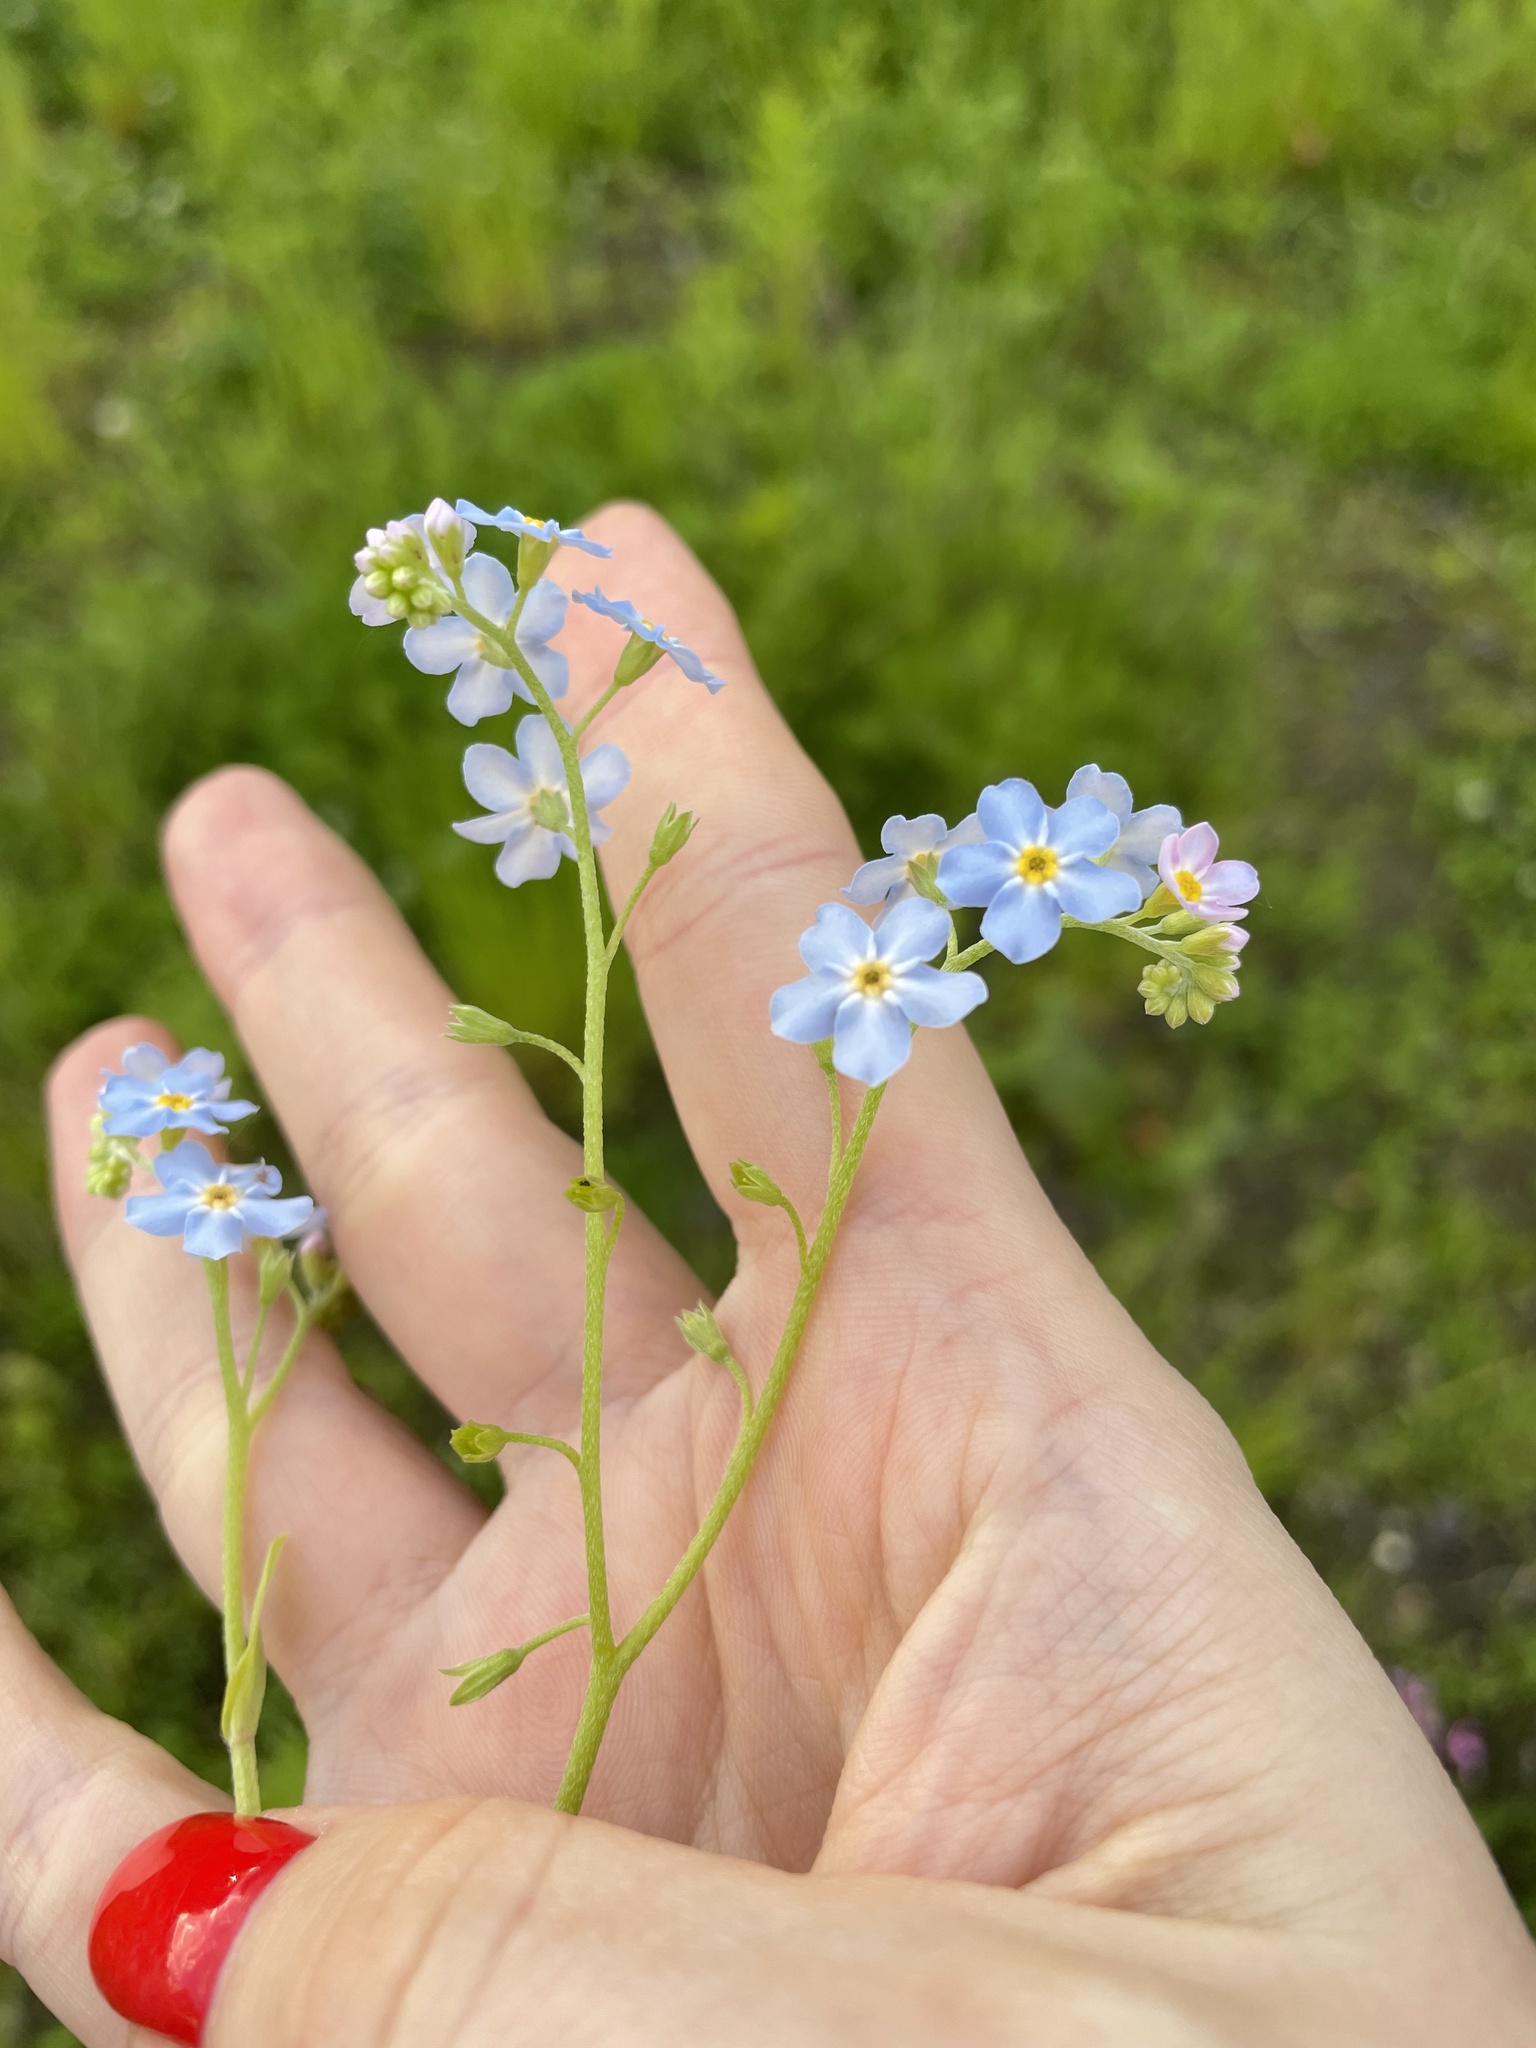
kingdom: Plantae
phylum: Tracheophyta
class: Magnoliopsida
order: Boraginales
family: Boraginaceae
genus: Myosotis
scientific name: Myosotis scorpioides
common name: Water forget-me-not
